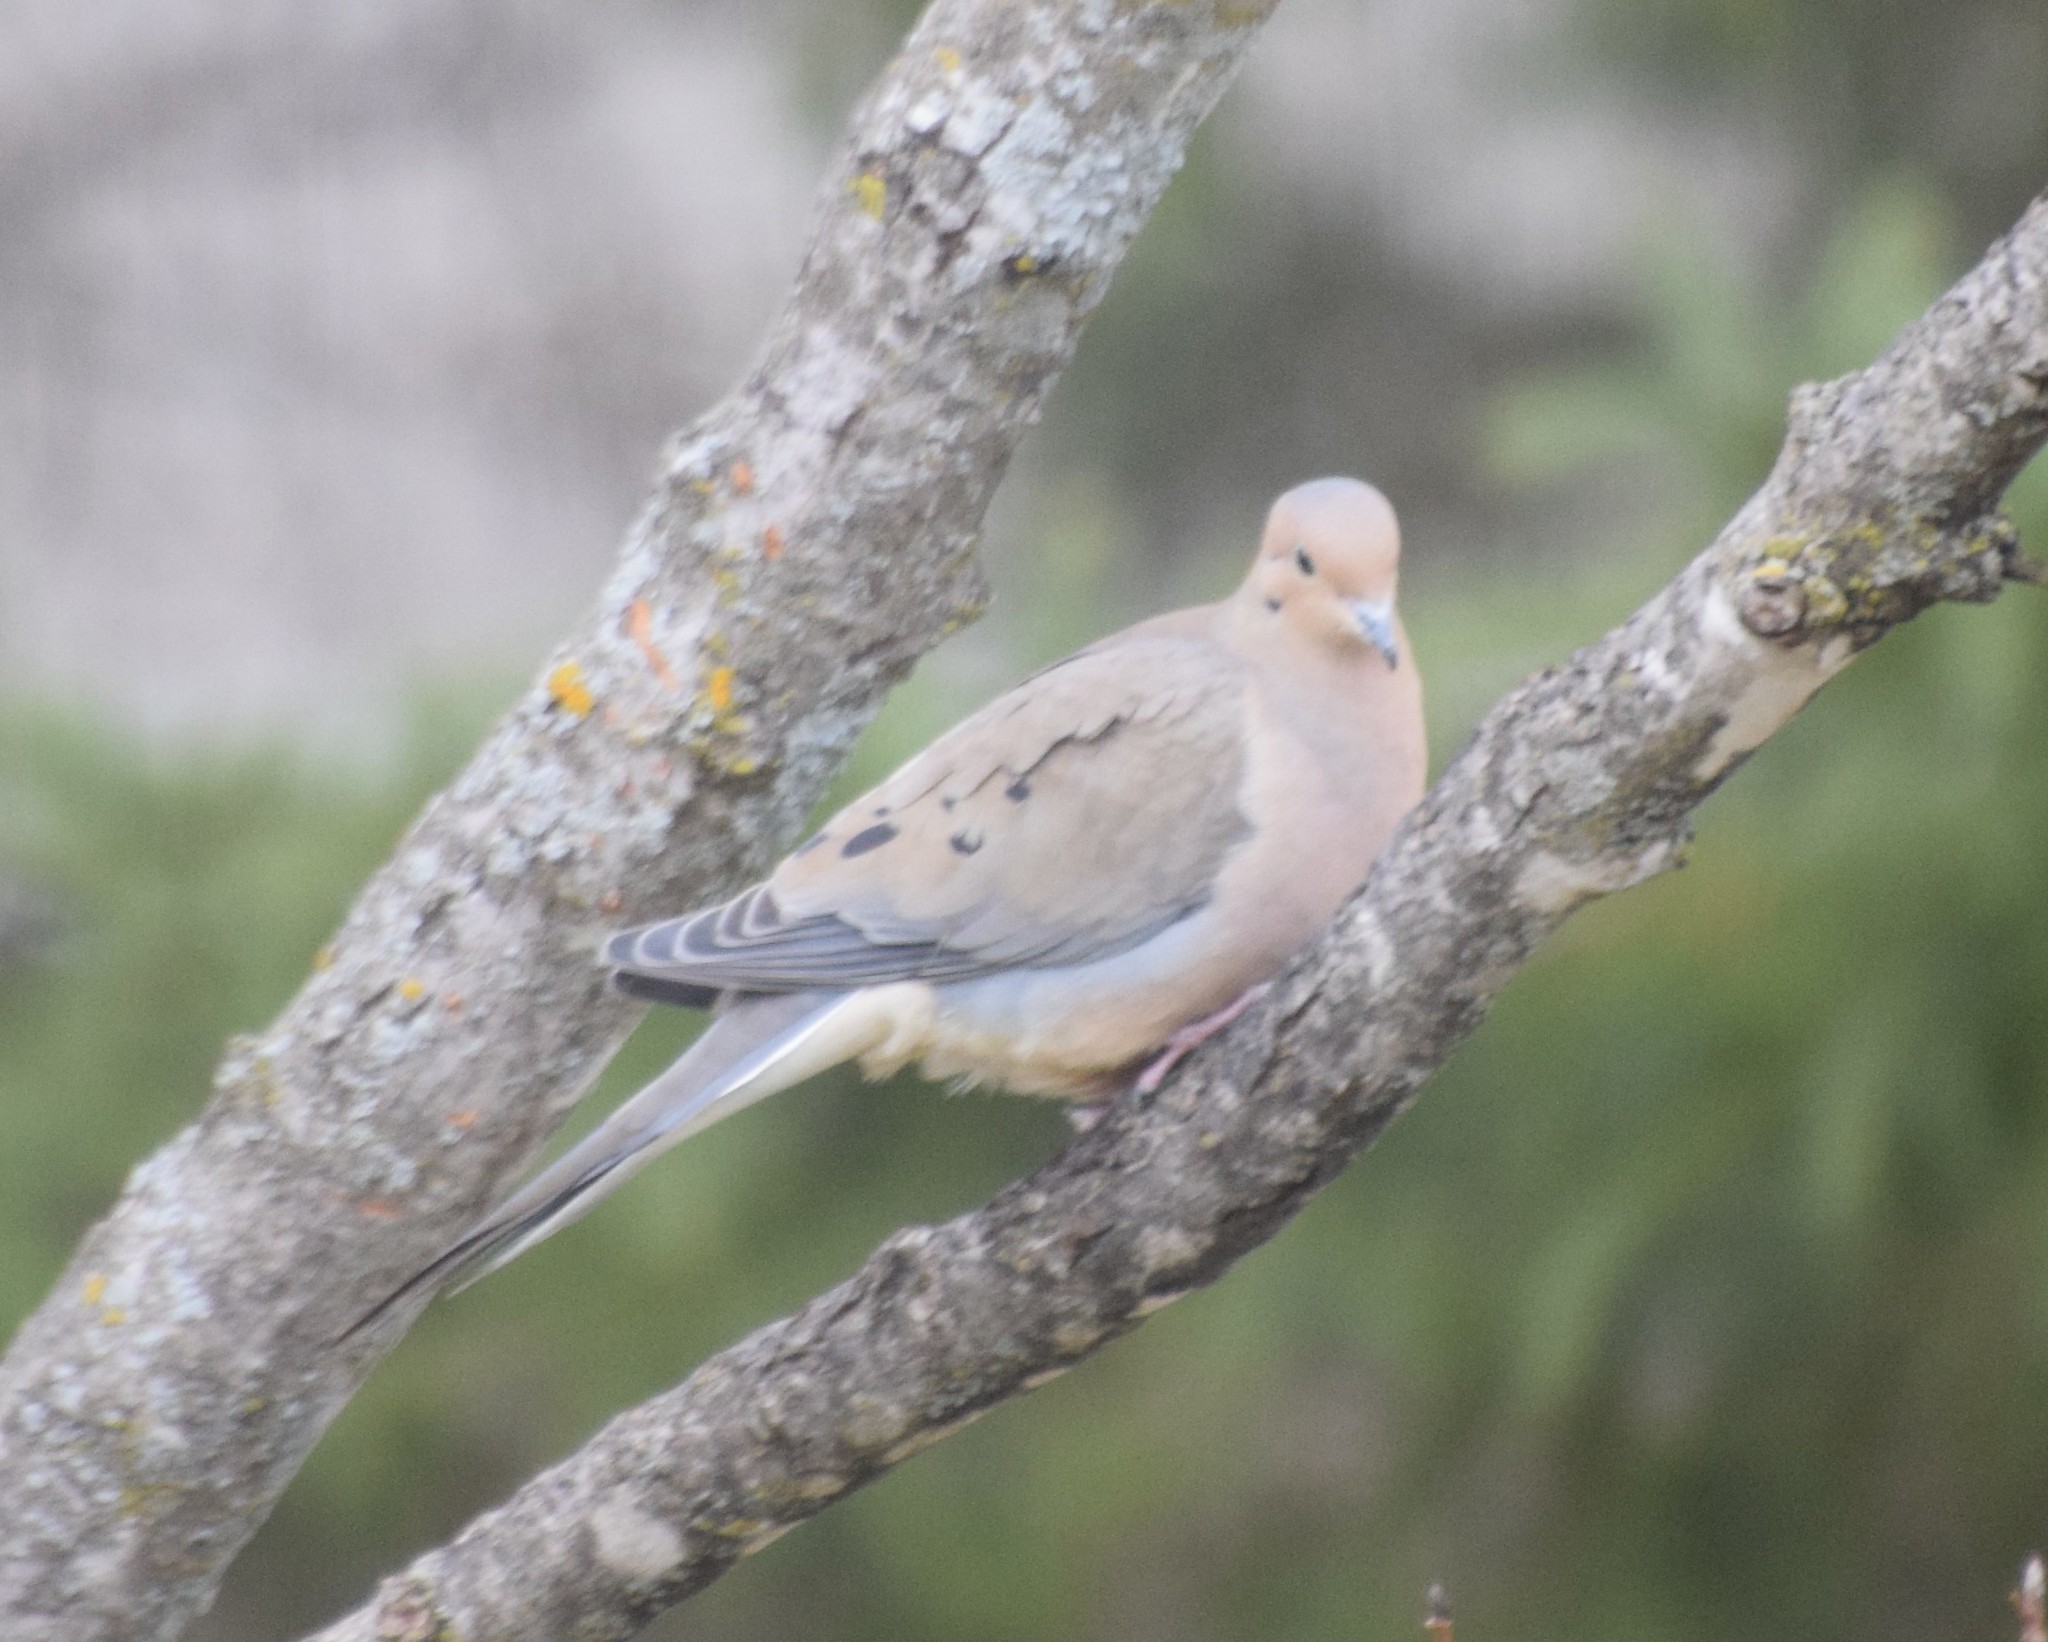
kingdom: Animalia
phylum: Chordata
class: Aves
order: Columbiformes
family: Columbidae
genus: Zenaida
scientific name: Zenaida macroura
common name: Mourning dove
